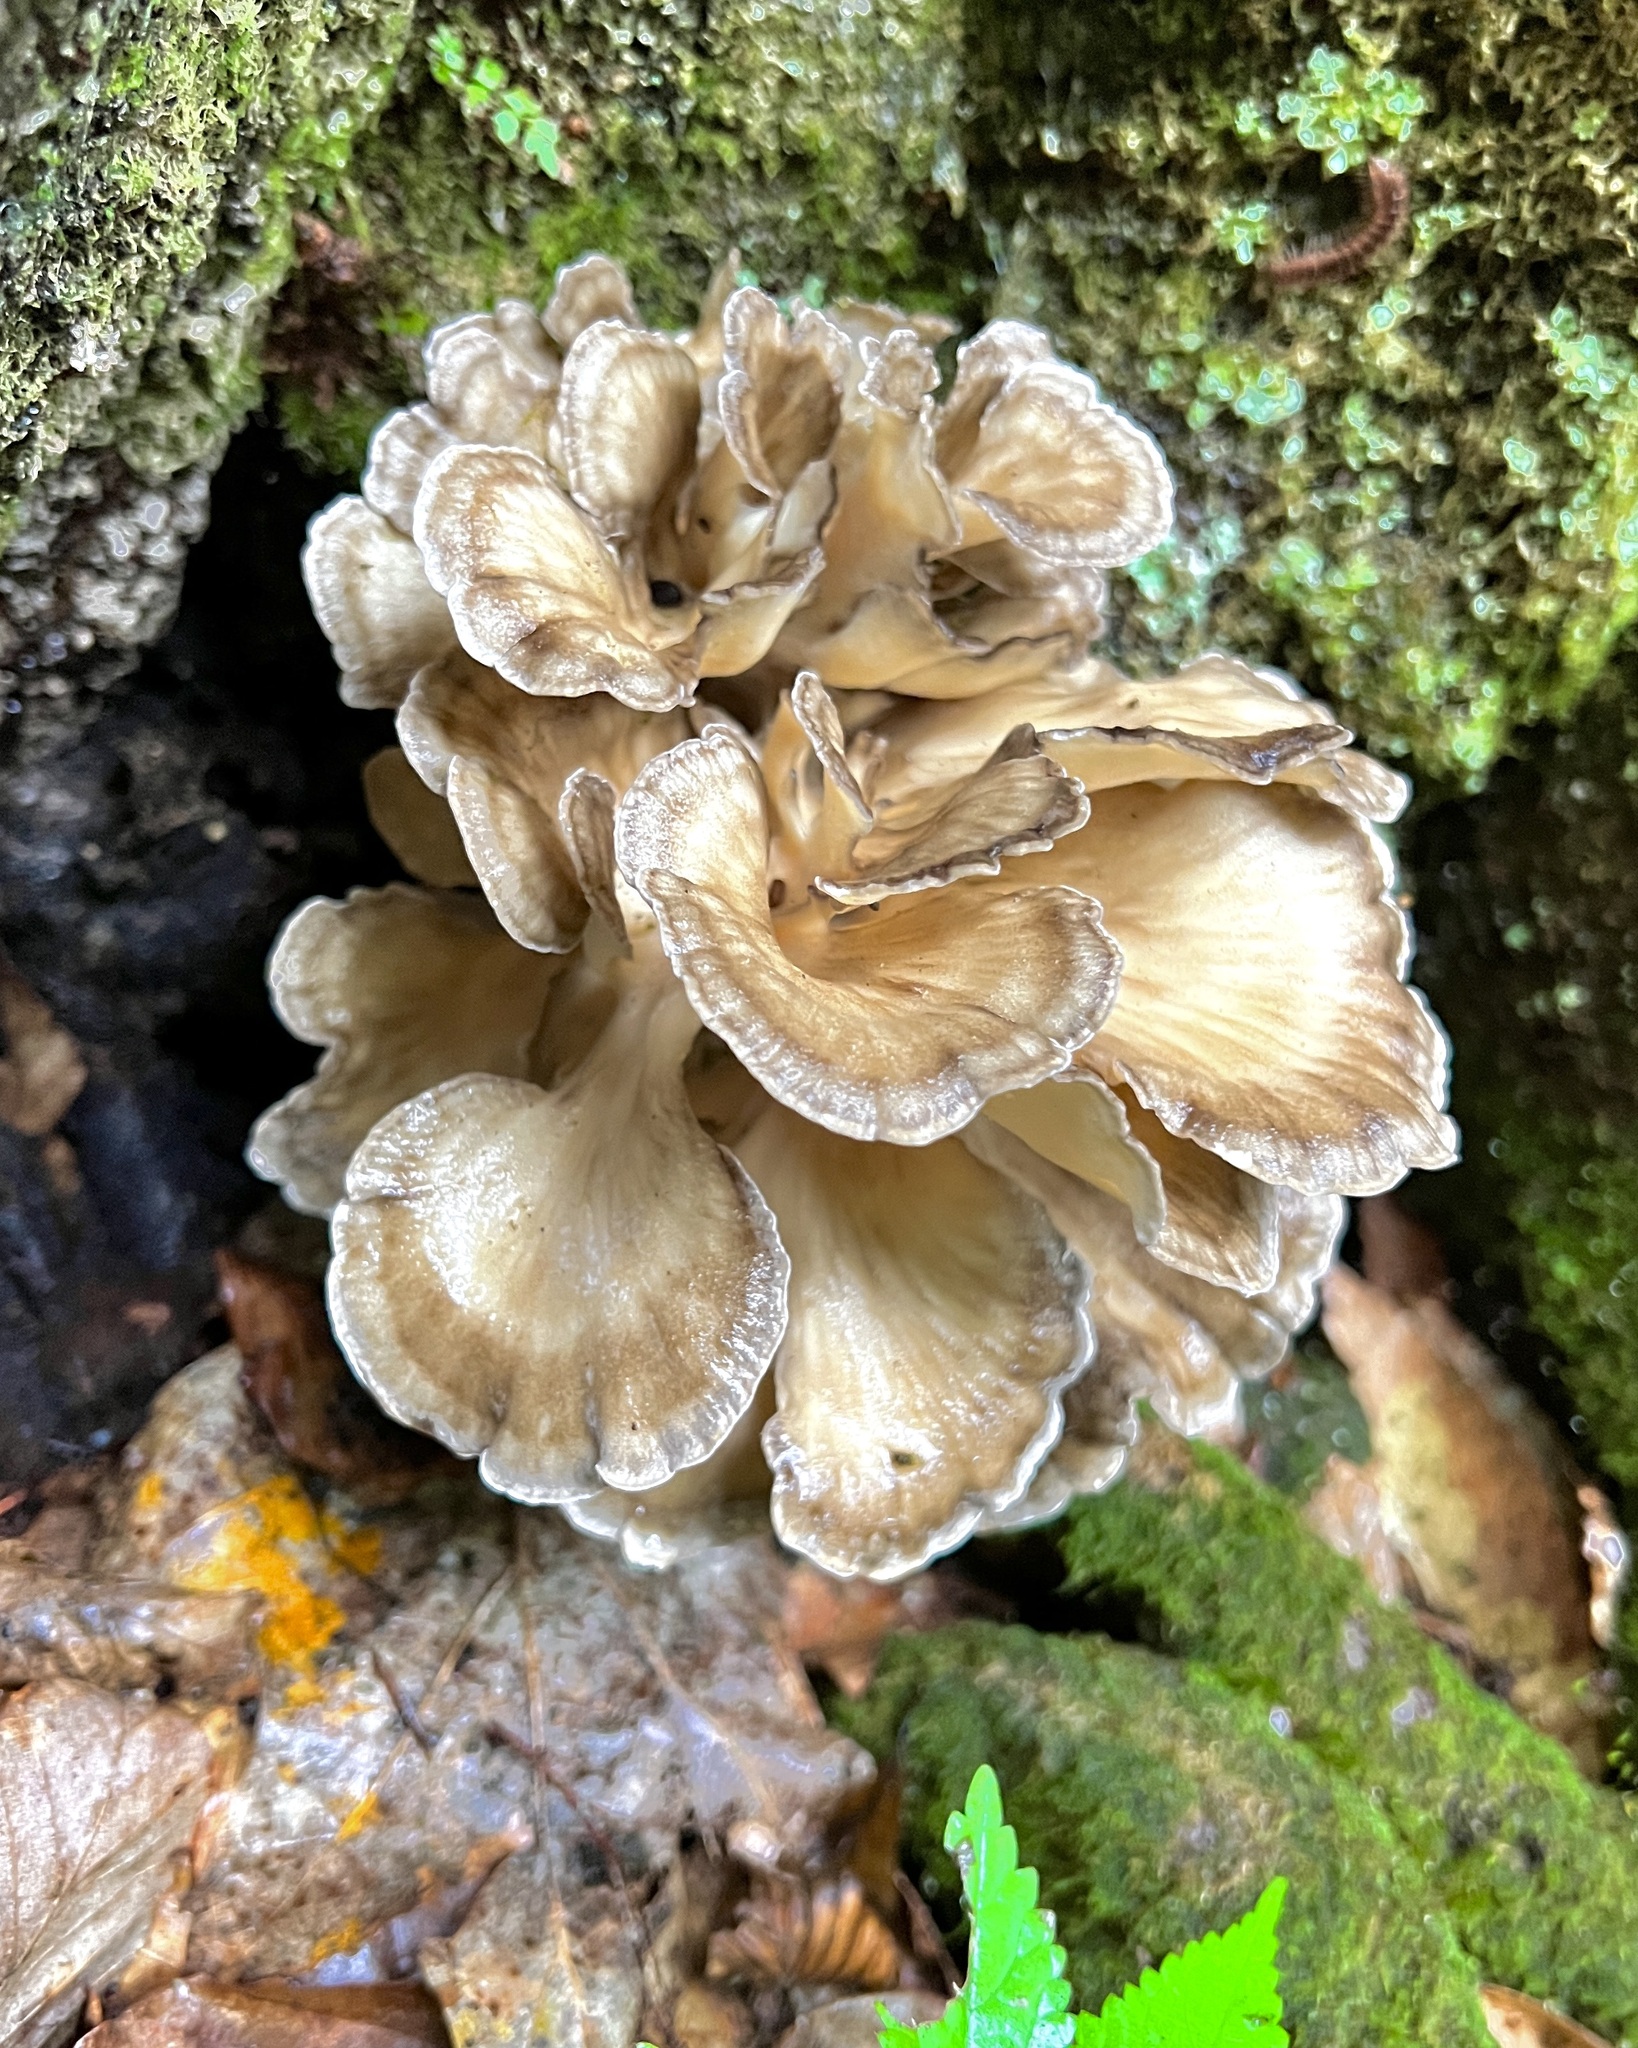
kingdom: Fungi
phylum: Basidiomycota
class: Agaricomycetes
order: Polyporales
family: Grifolaceae
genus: Grifola
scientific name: Grifola frondosa
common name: Hen of the woods
